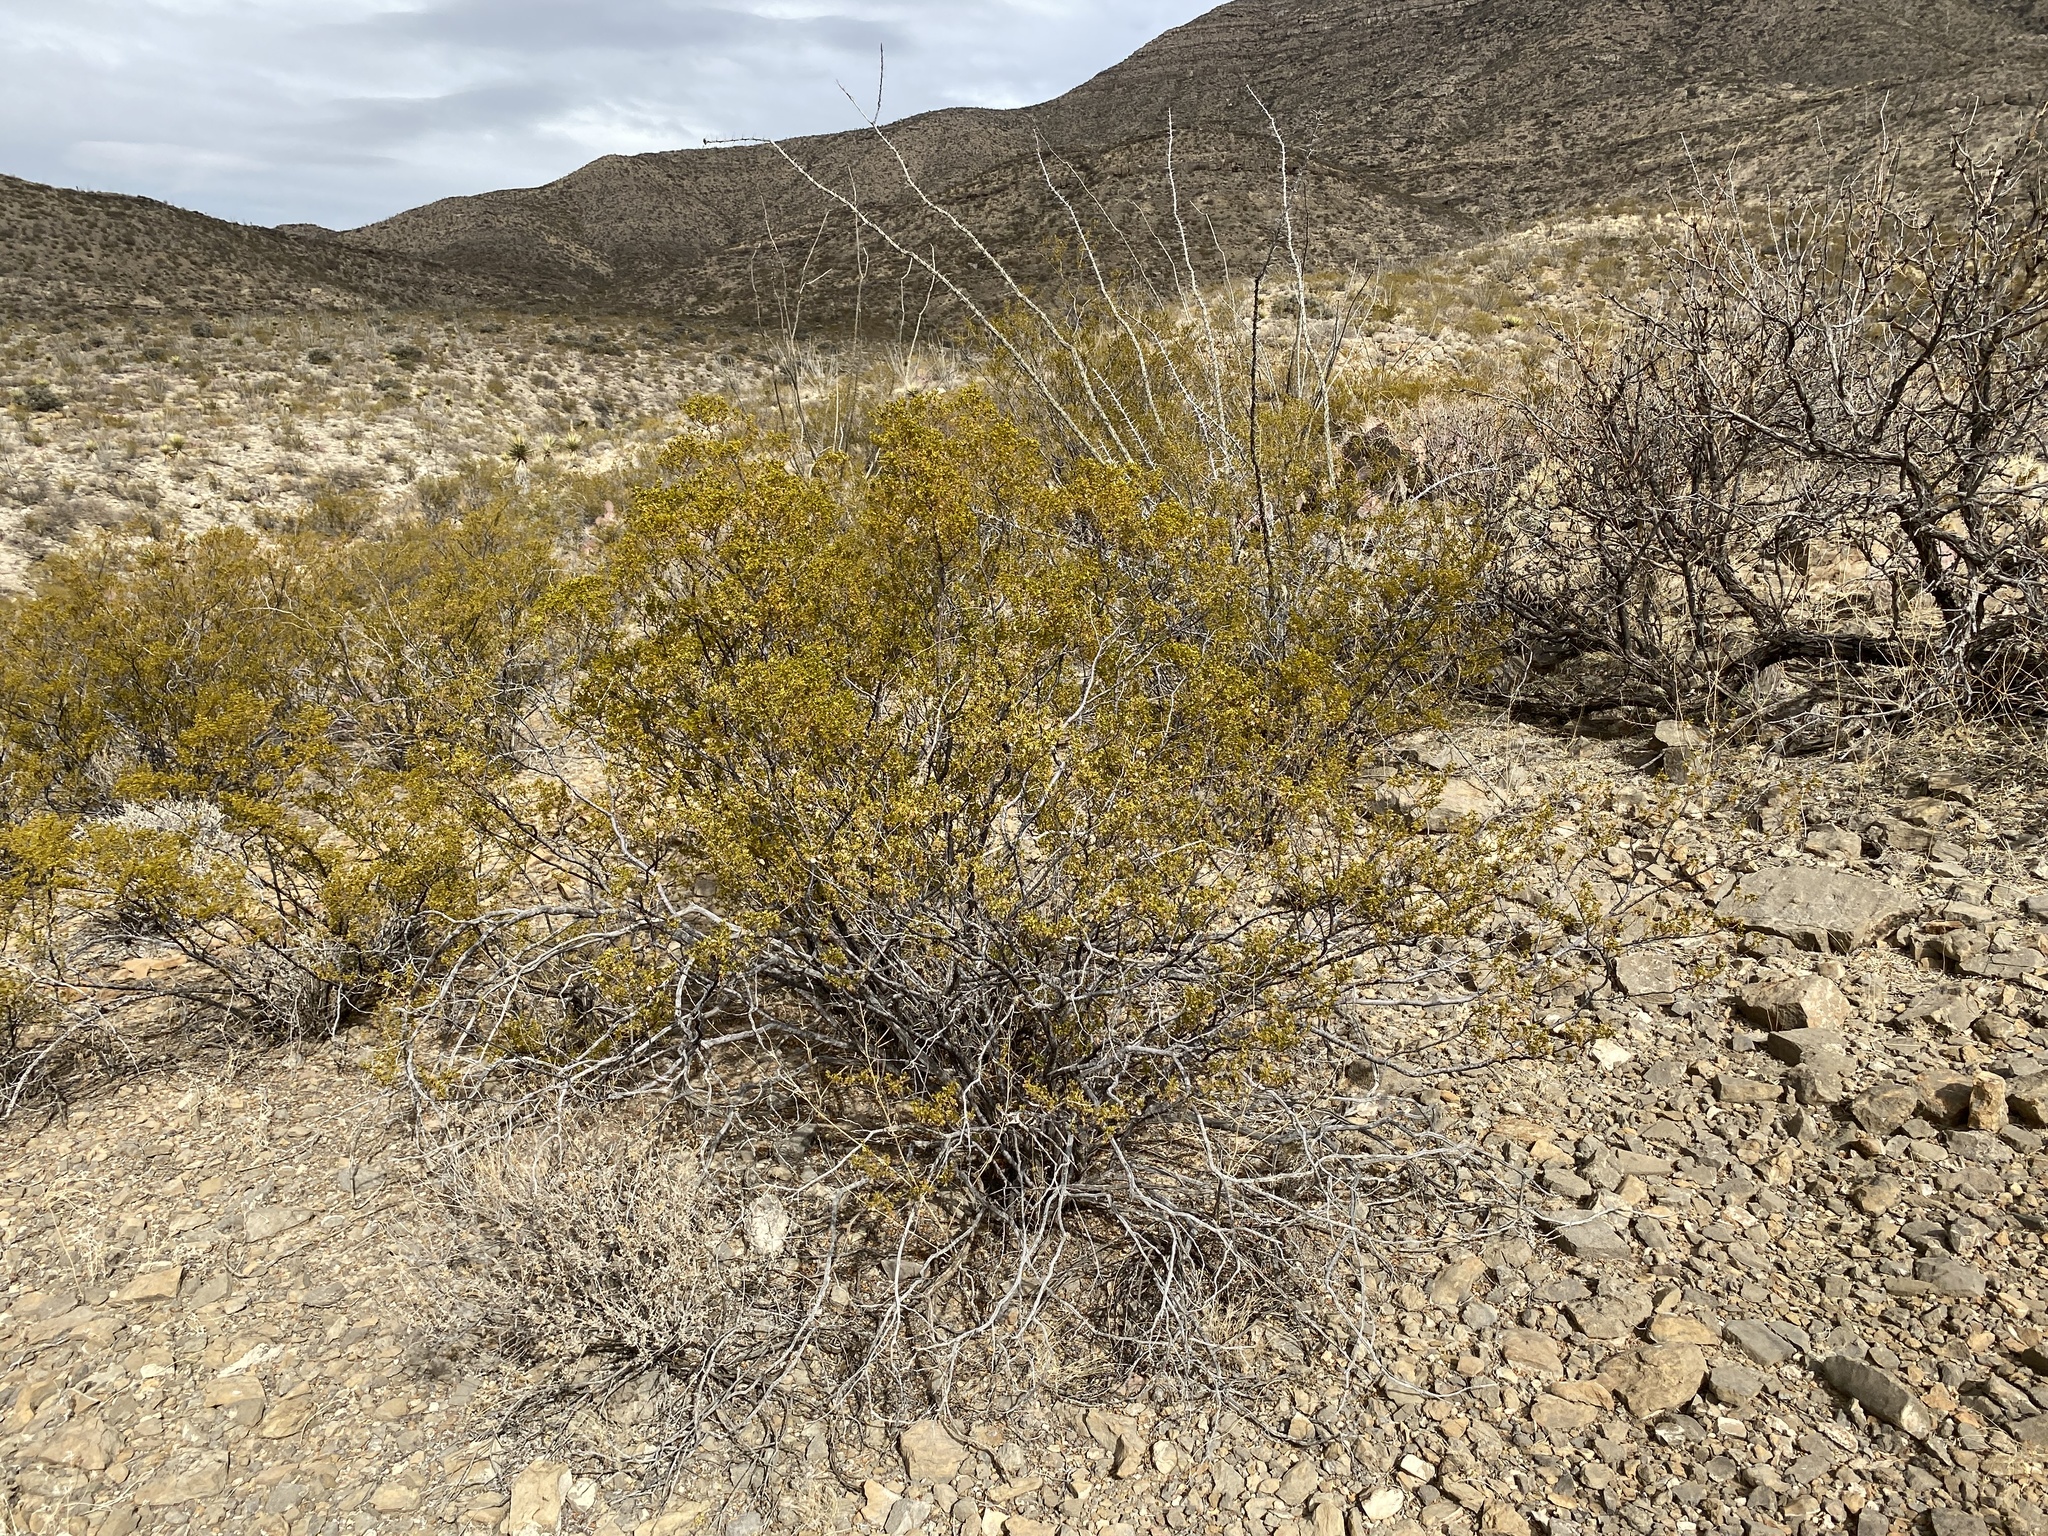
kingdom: Plantae
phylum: Tracheophyta
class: Magnoliopsida
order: Zygophyllales
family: Zygophyllaceae
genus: Larrea
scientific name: Larrea tridentata
